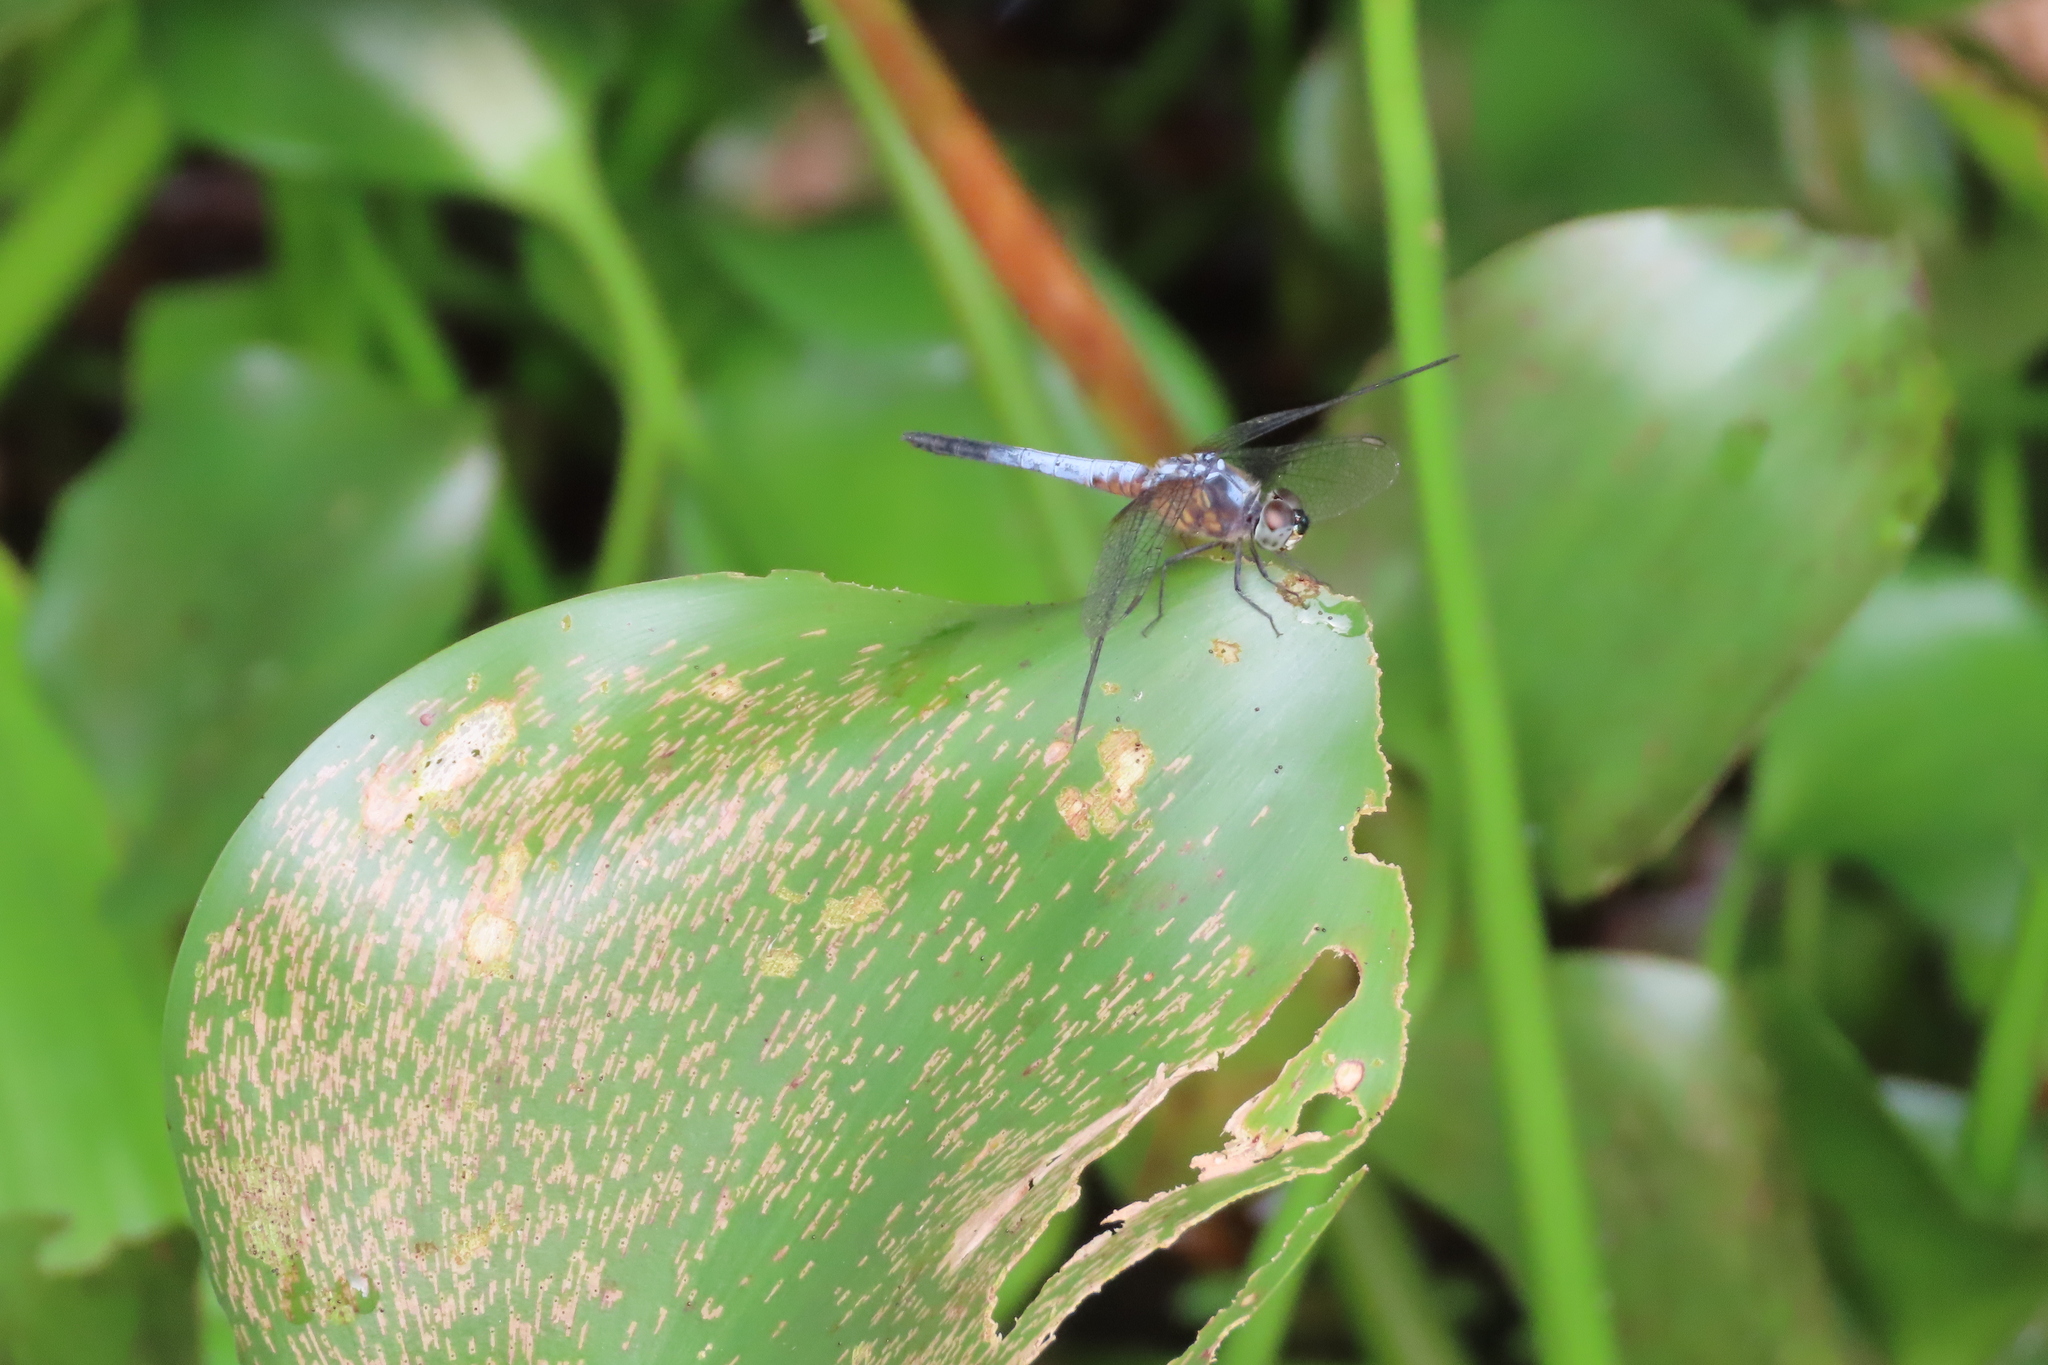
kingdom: Animalia
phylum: Arthropoda
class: Insecta
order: Odonata
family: Libellulidae
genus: Brachydiplax
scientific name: Brachydiplax chalybea
